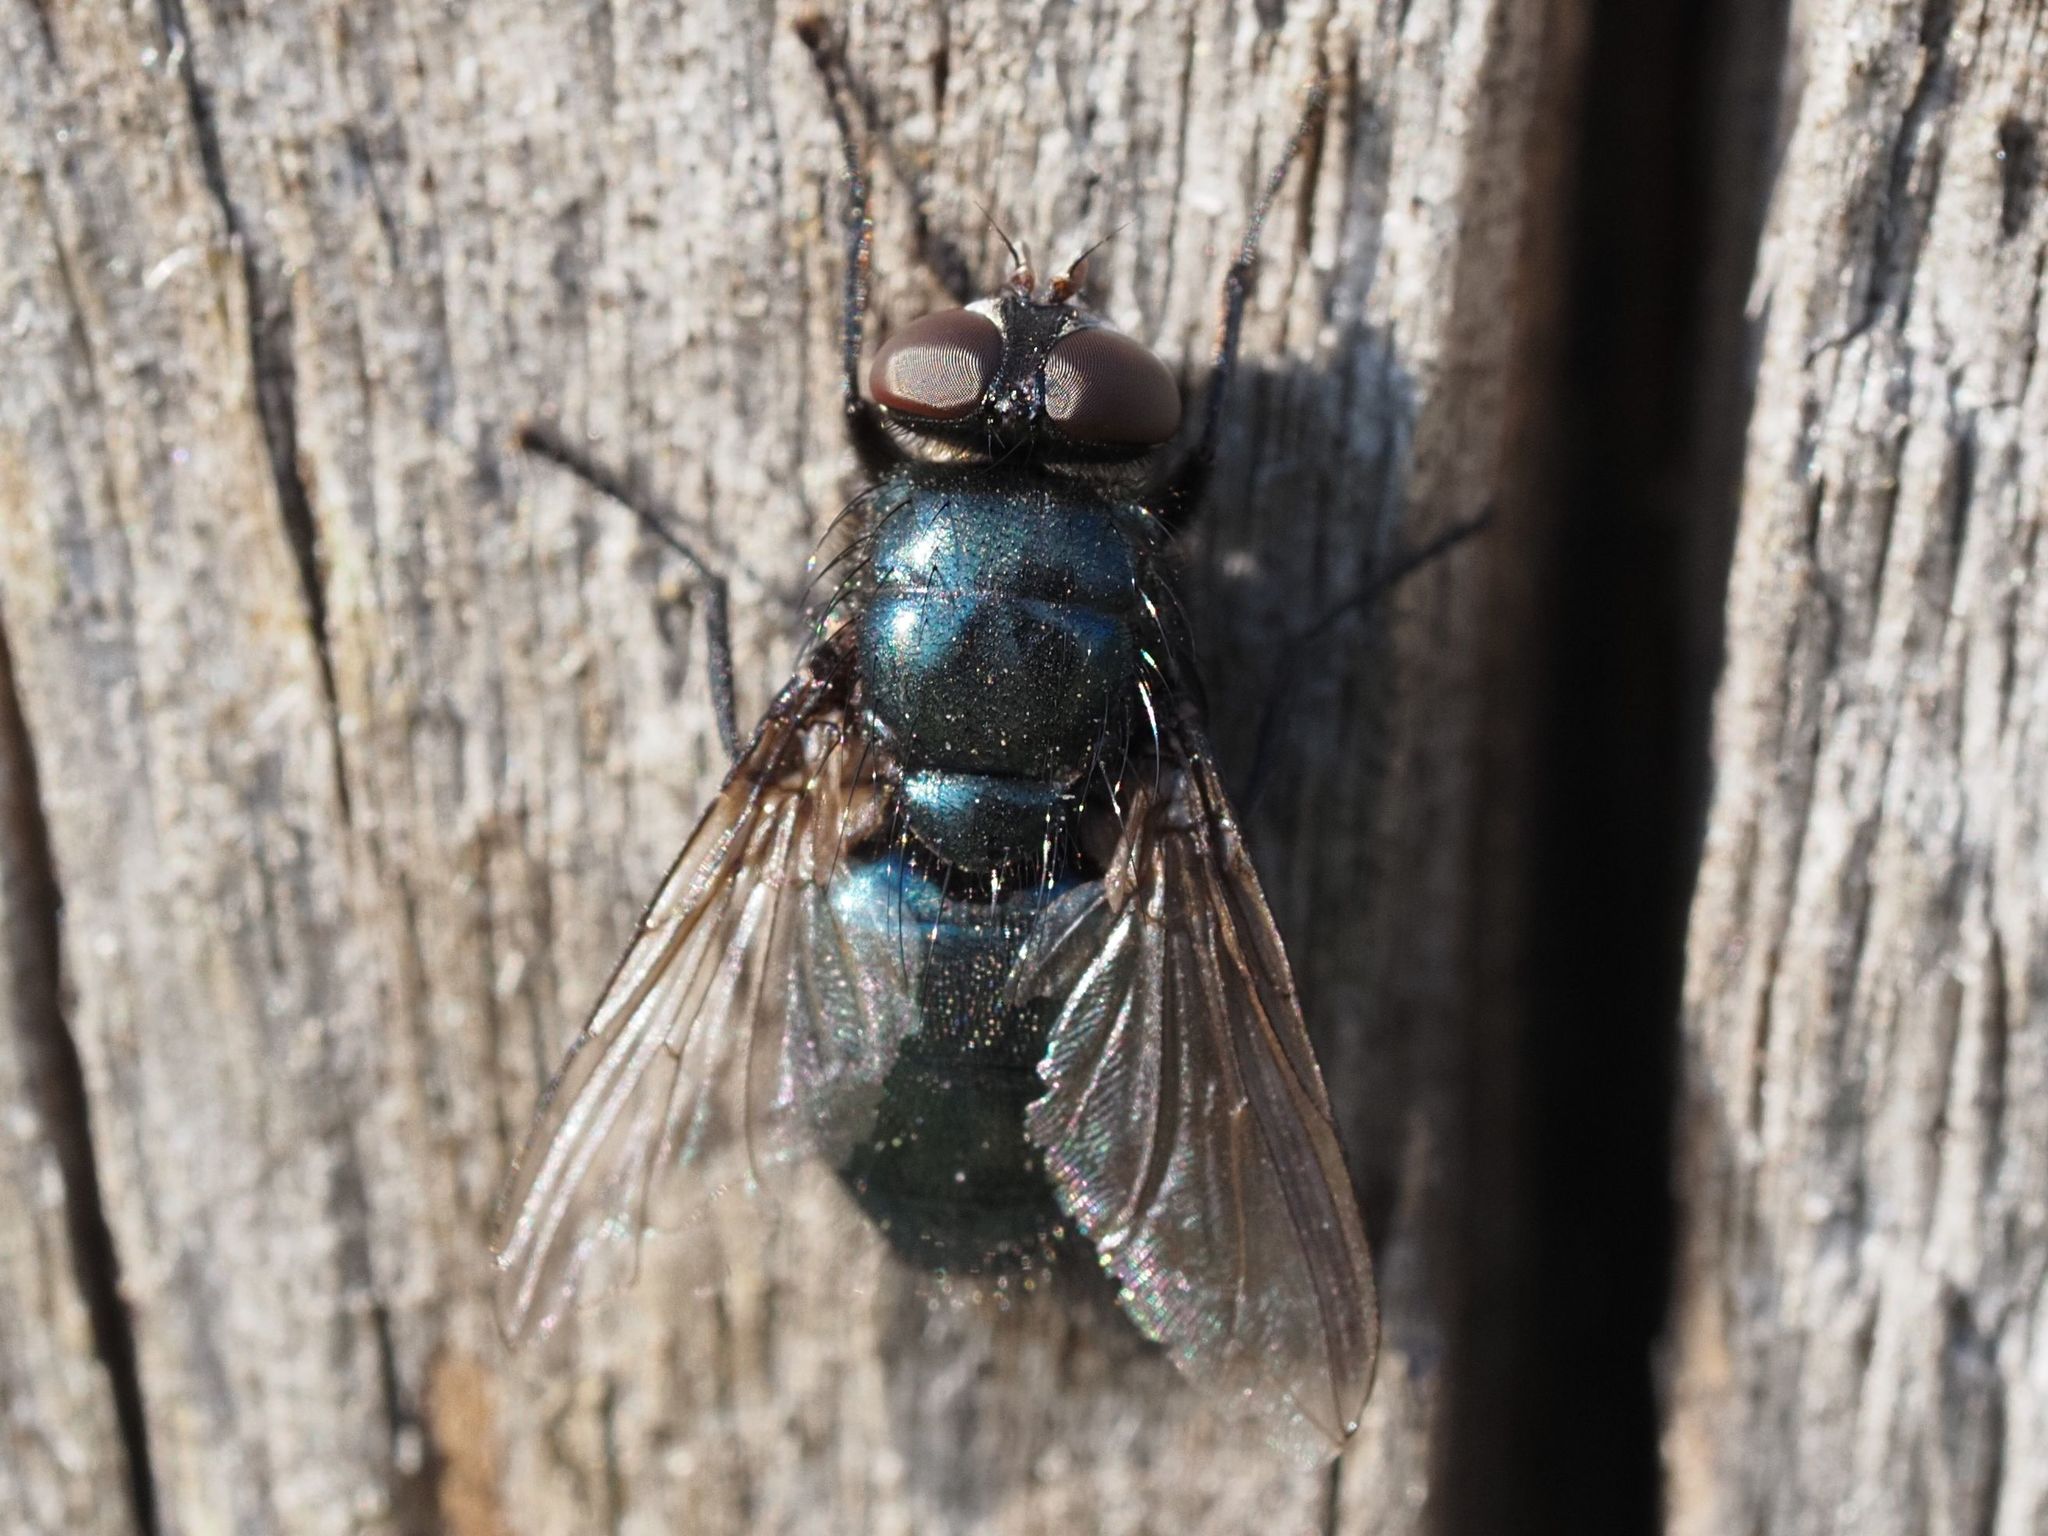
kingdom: Animalia
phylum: Arthropoda
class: Insecta
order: Diptera
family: Calliphoridae
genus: Protophormia
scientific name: Protophormia terraenovae
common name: Blackbottle
